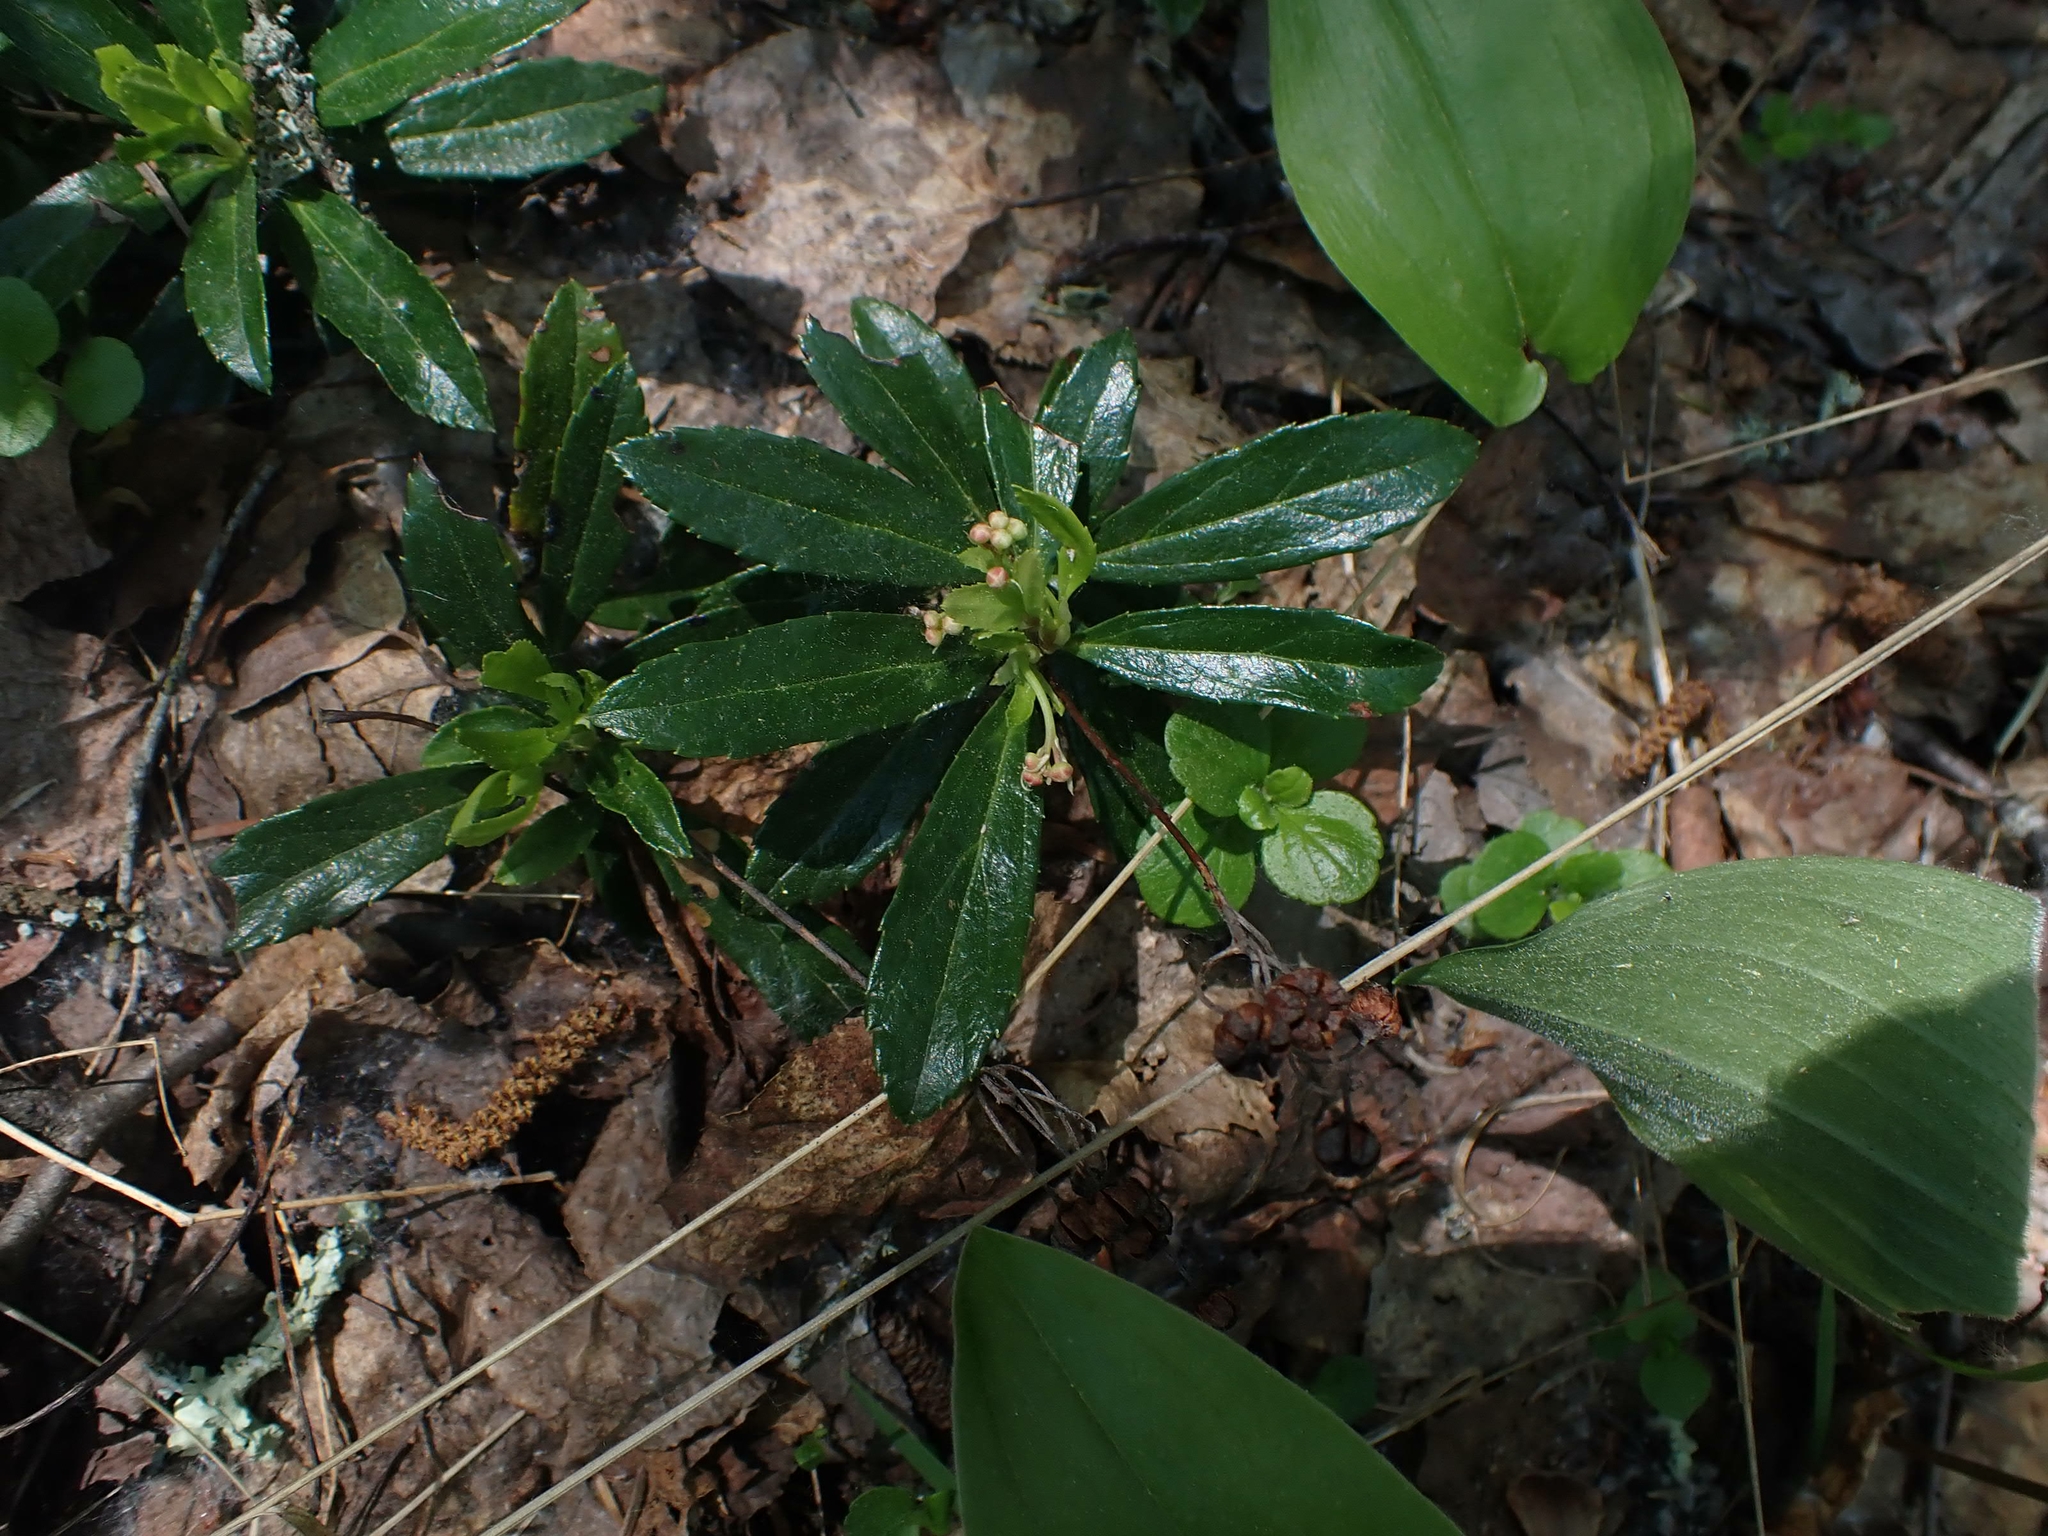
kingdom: Plantae
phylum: Tracheophyta
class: Magnoliopsida
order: Ericales
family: Ericaceae
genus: Chimaphila
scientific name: Chimaphila umbellata
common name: Pipsissewa
